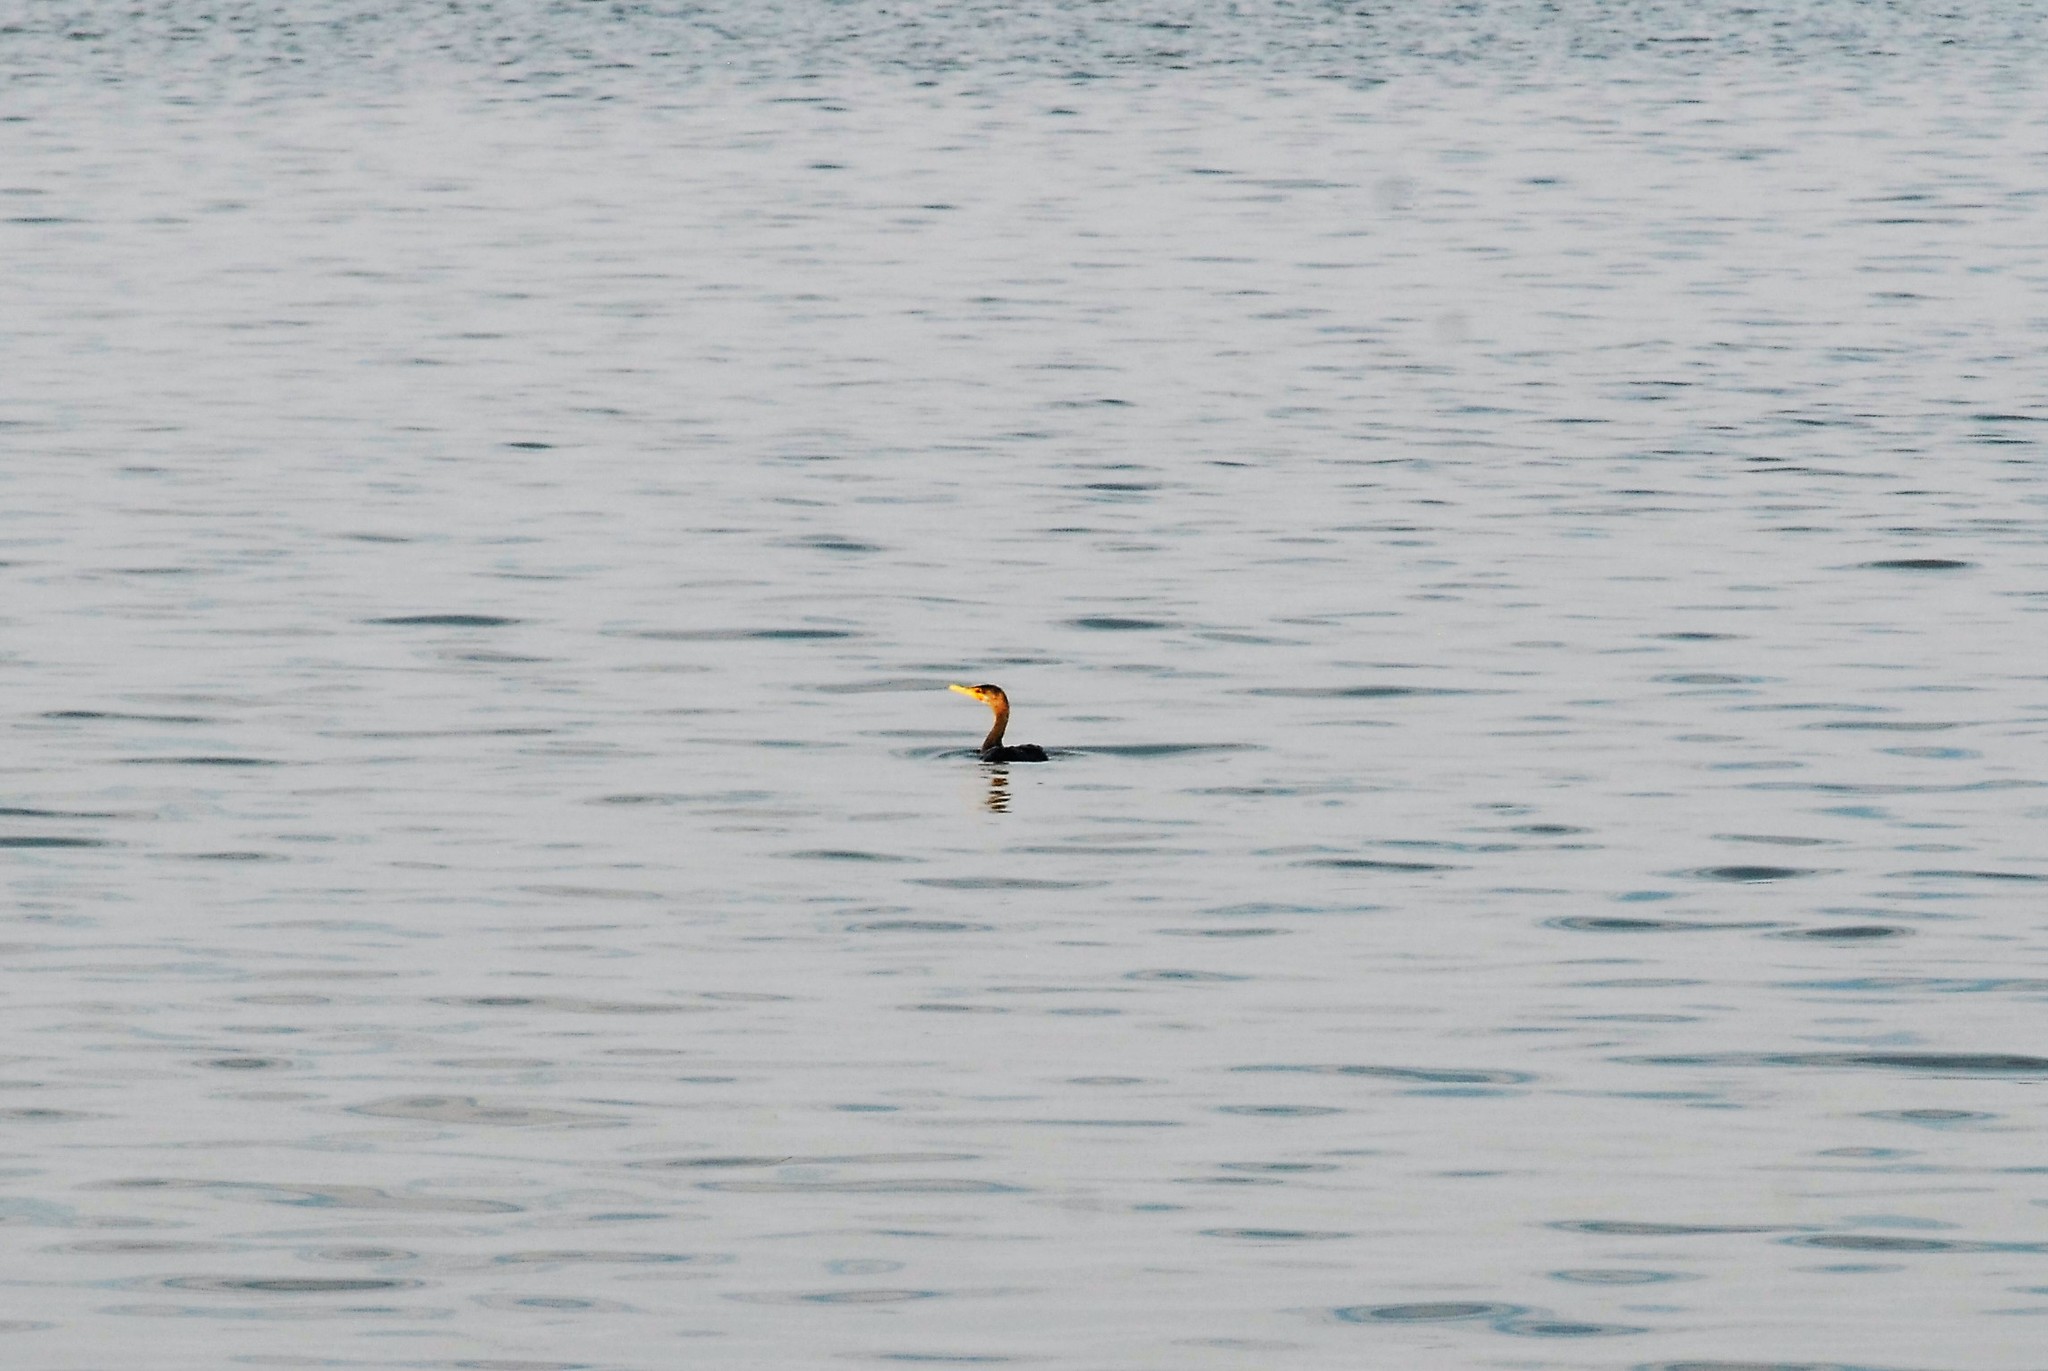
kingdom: Animalia
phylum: Chordata
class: Aves
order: Suliformes
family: Phalacrocoracidae
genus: Phalacrocorax
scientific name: Phalacrocorax auritus
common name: Double-crested cormorant
